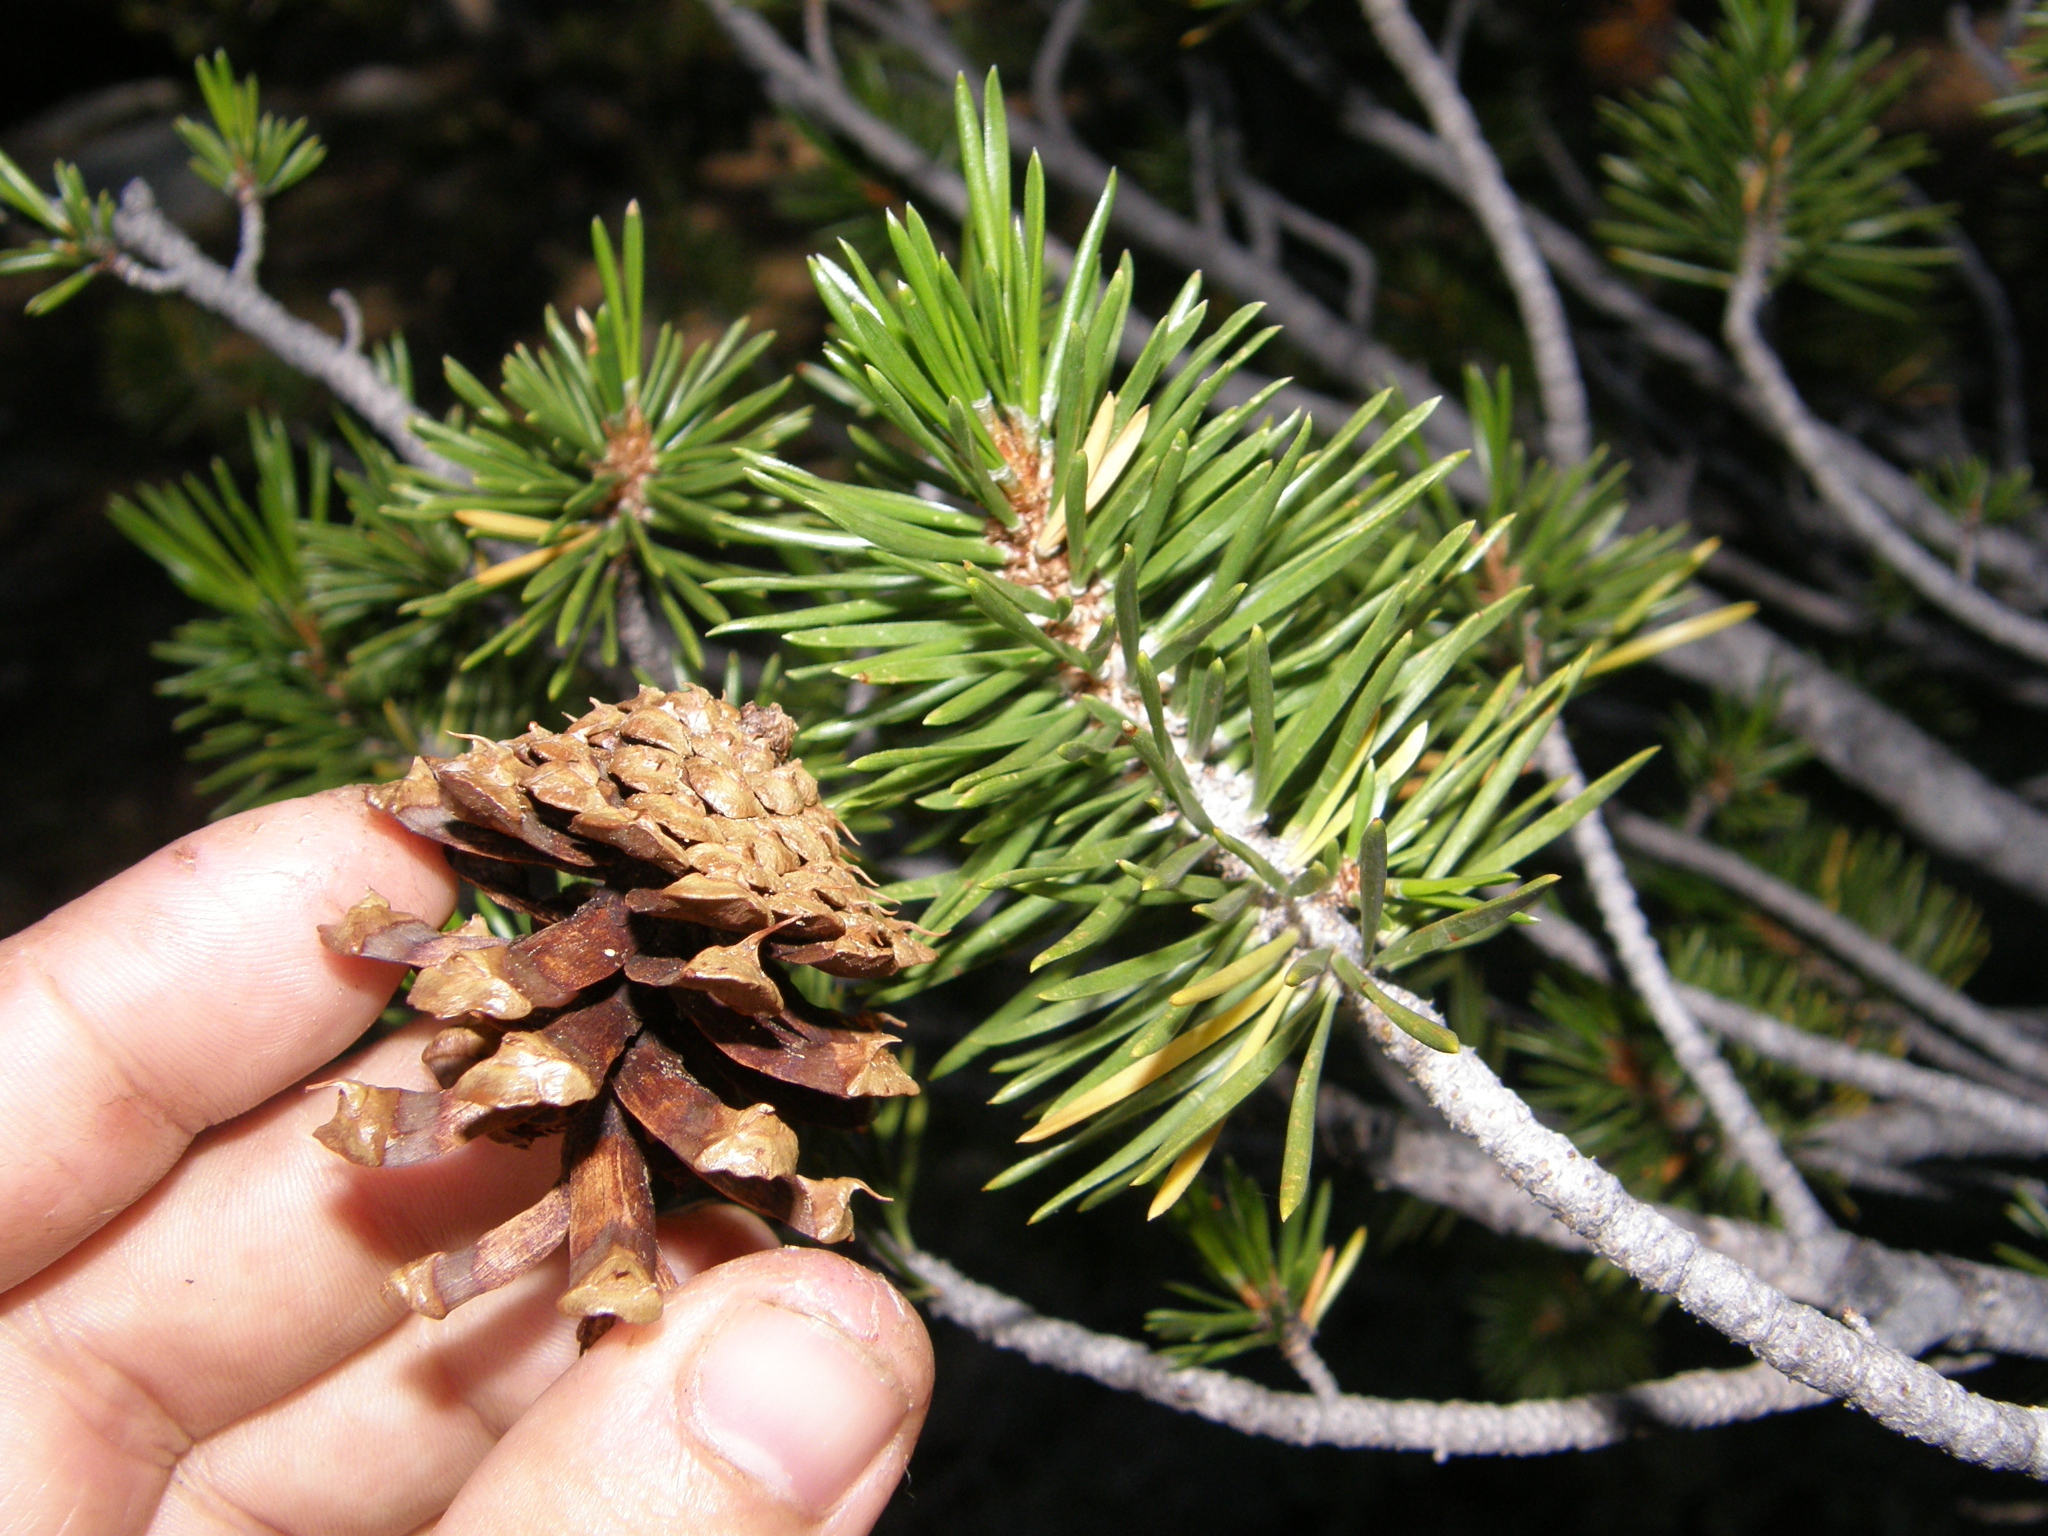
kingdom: Plantae
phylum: Tracheophyta
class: Pinopsida
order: Pinales
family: Pinaceae
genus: Pinus
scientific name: Pinus contorta
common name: Lodgepole pine
